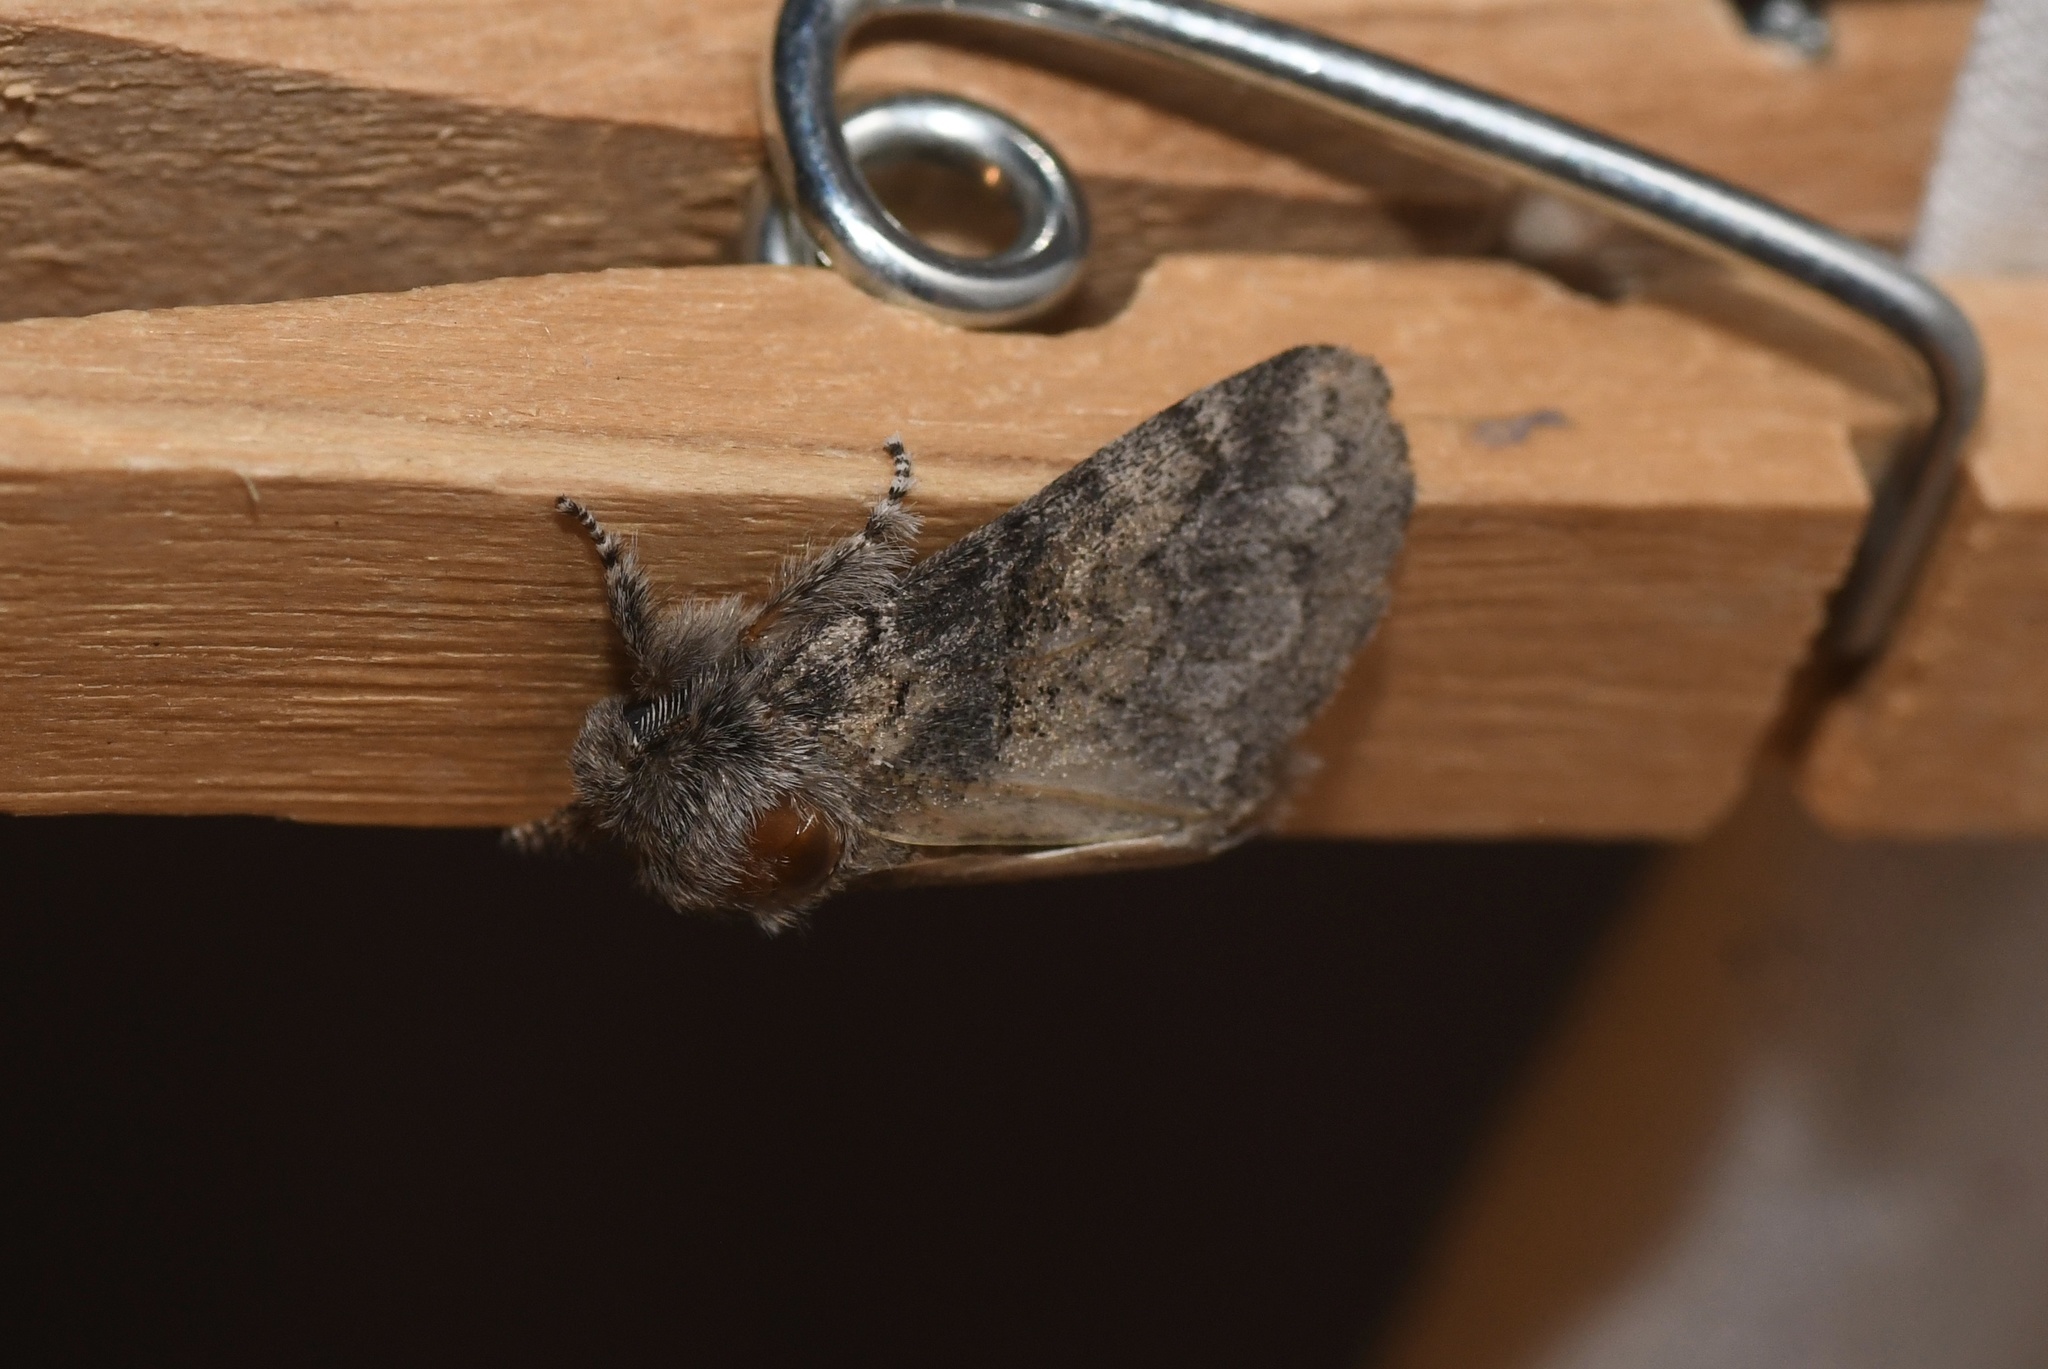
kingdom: Animalia
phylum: Arthropoda
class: Insecta
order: Lepidoptera
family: Notodontidae
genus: Gluphisia
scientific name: Gluphisia septentrionis
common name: Common gluphisia
